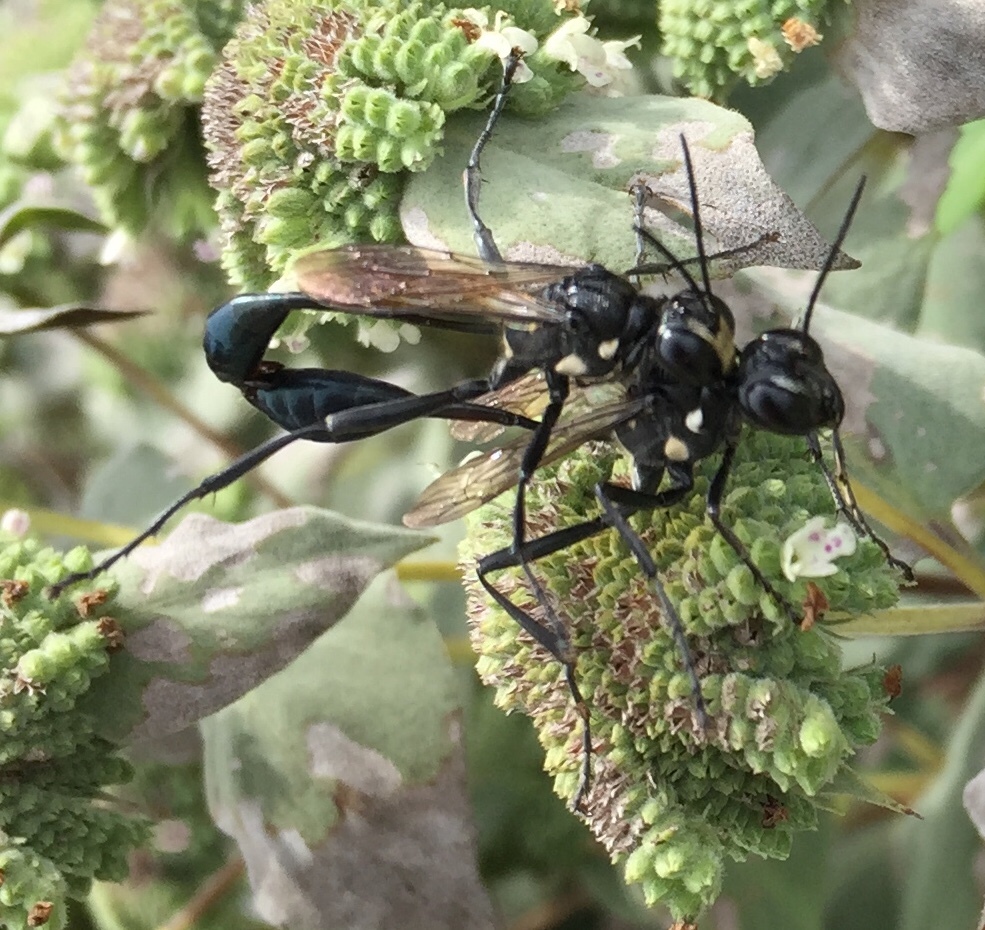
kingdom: Animalia
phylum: Arthropoda
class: Insecta
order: Hymenoptera
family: Sphecidae
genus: Eremnophila
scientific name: Eremnophila aureonotata
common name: Gold-marked thread-waisted wasp
